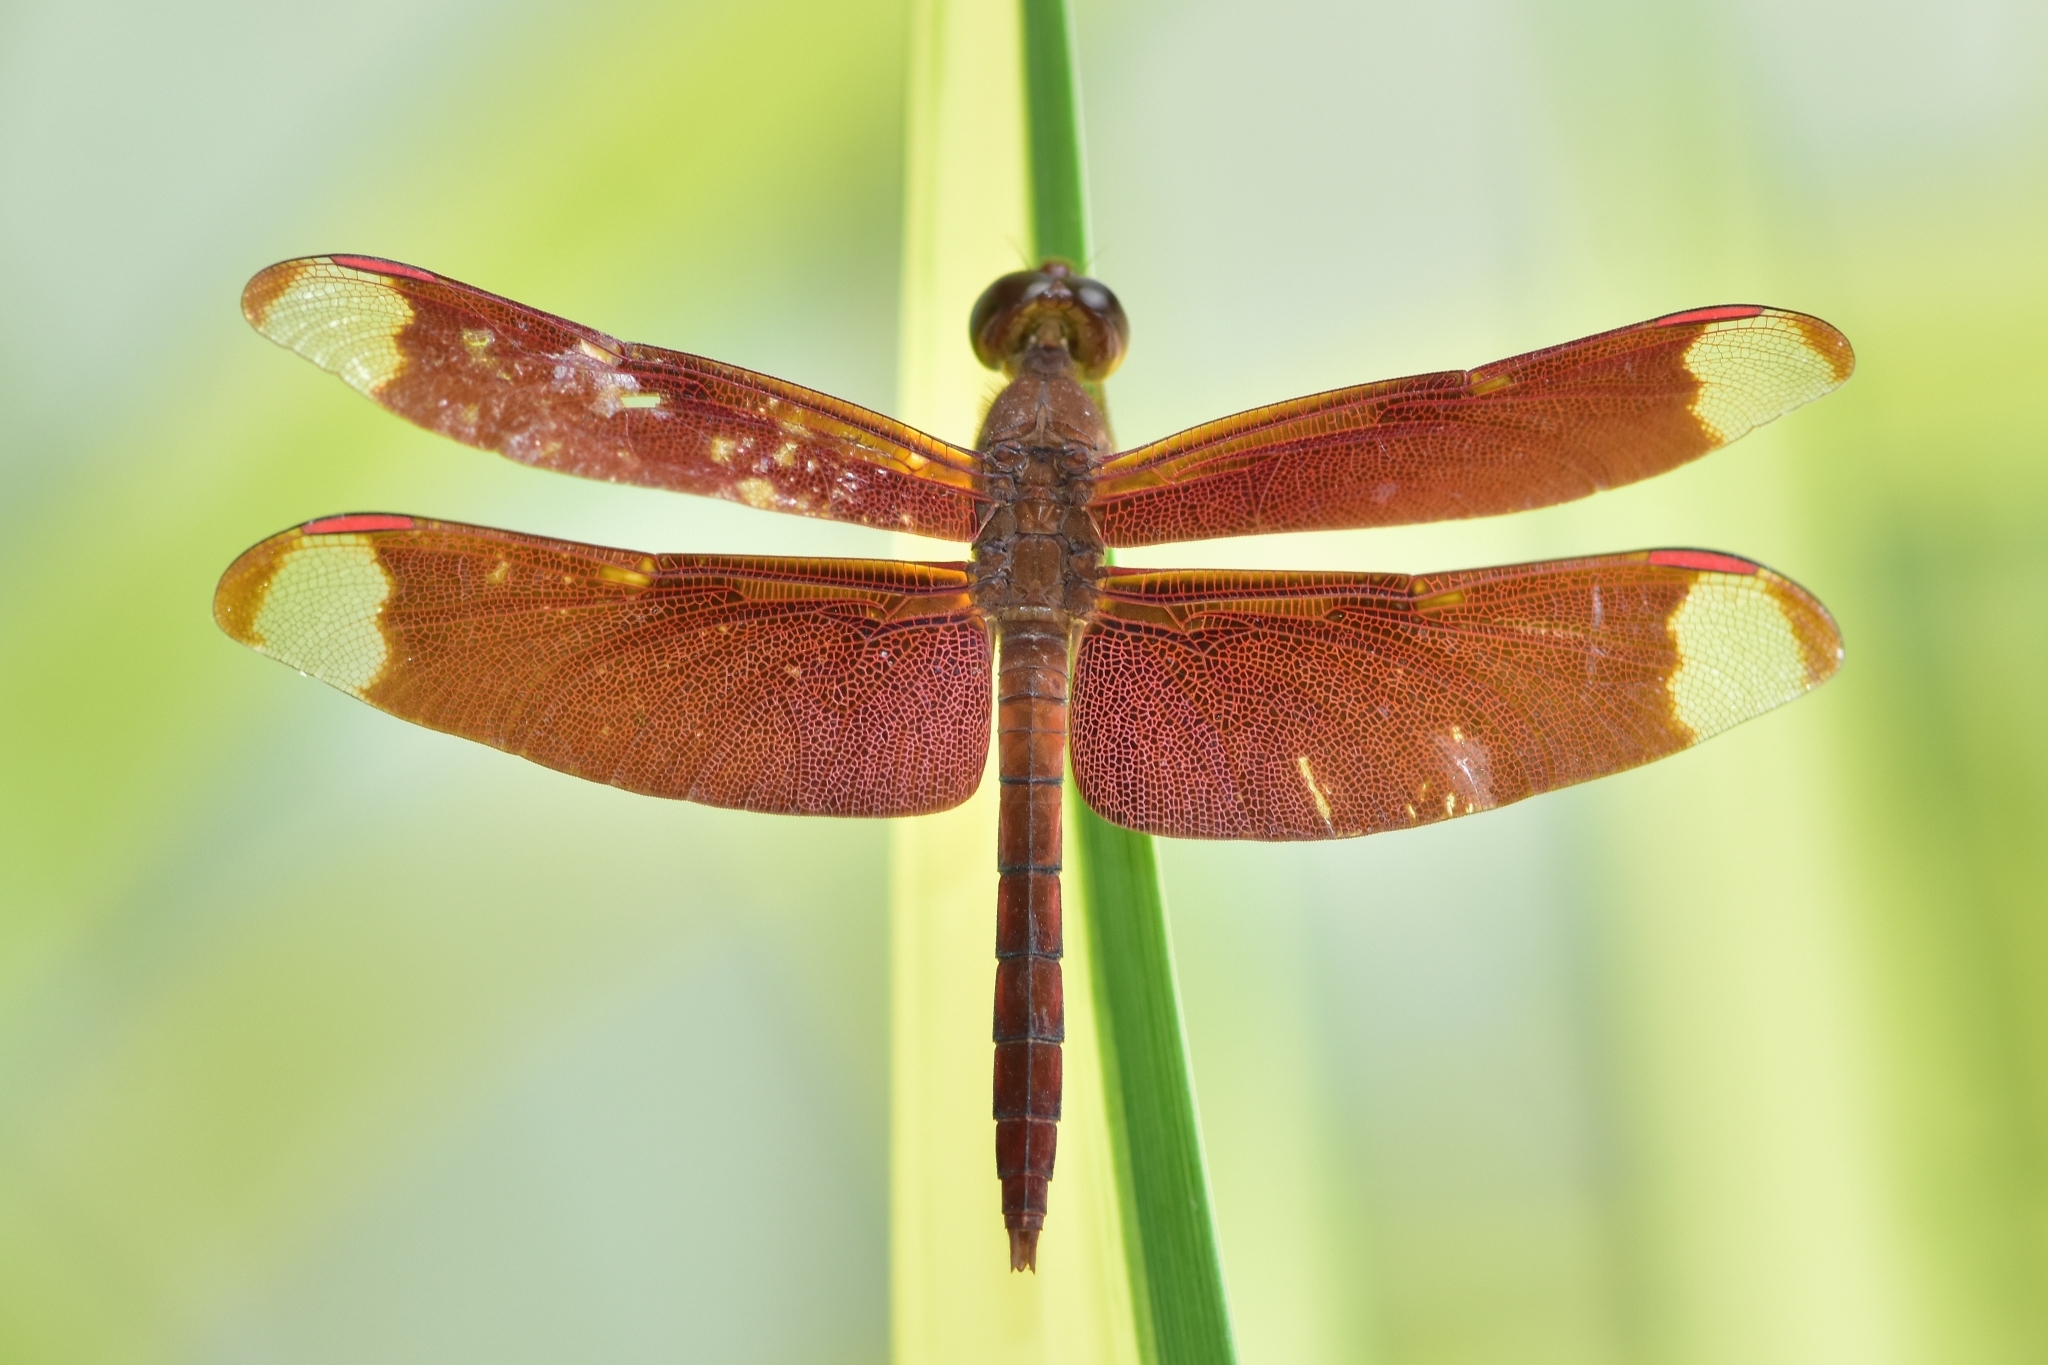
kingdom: Animalia
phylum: Arthropoda
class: Insecta
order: Odonata
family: Libellulidae
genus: Neurothemis
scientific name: Neurothemis fulvia
